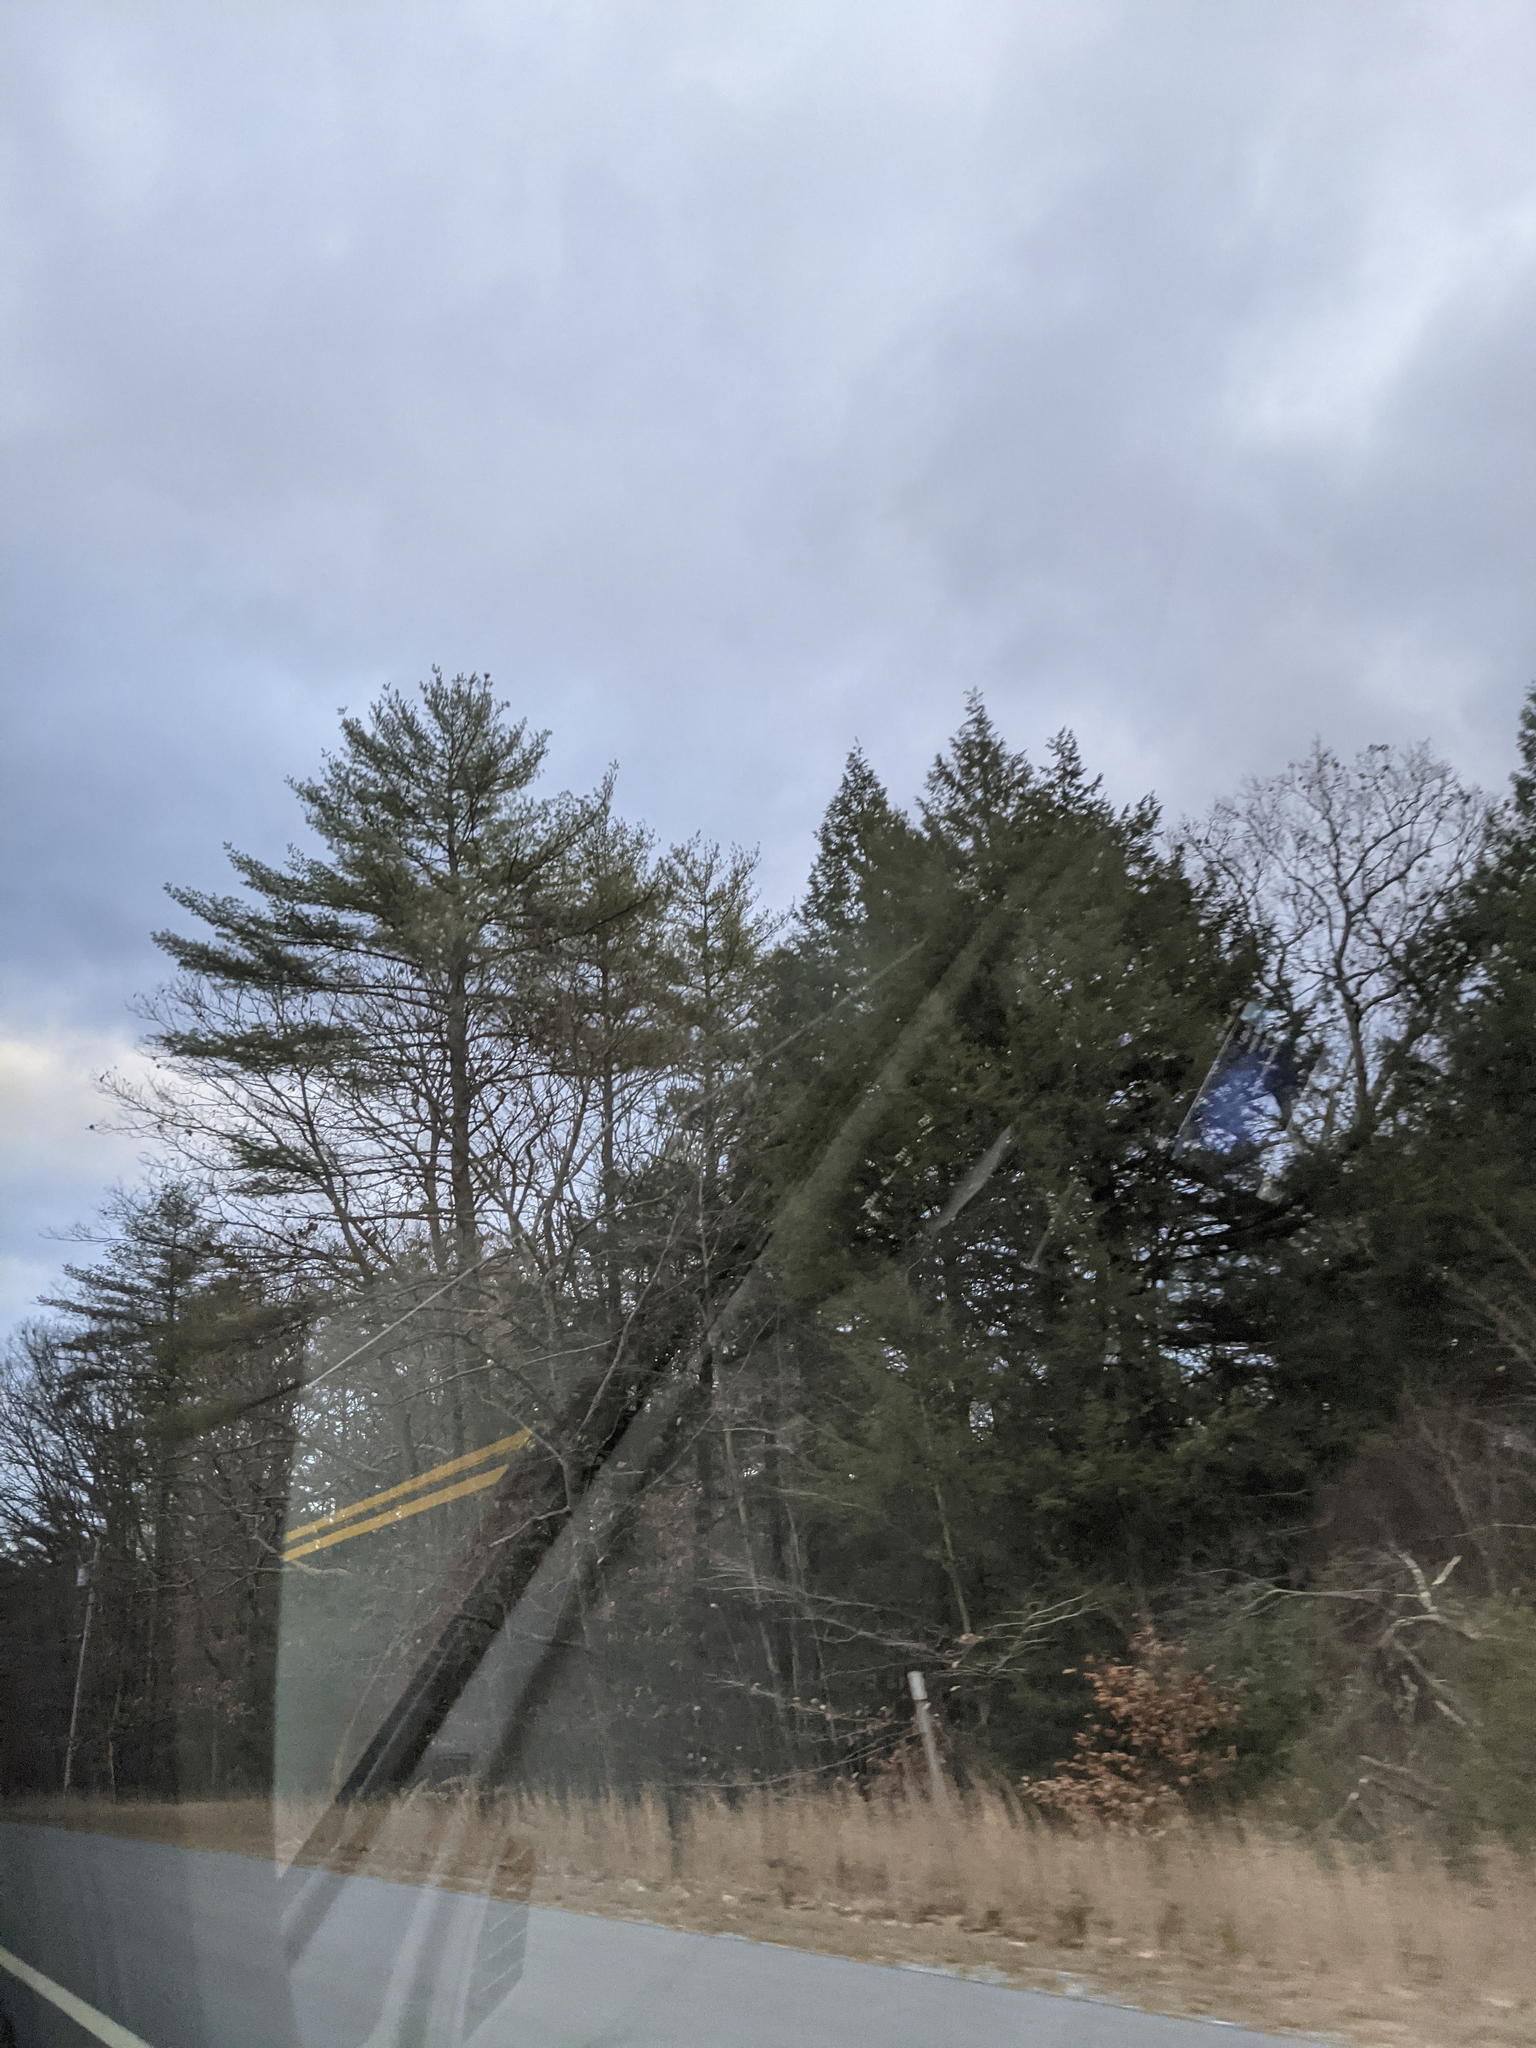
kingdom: Plantae
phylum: Tracheophyta
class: Pinopsida
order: Pinales
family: Pinaceae
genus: Pinus
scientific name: Pinus strobus
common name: Weymouth pine
